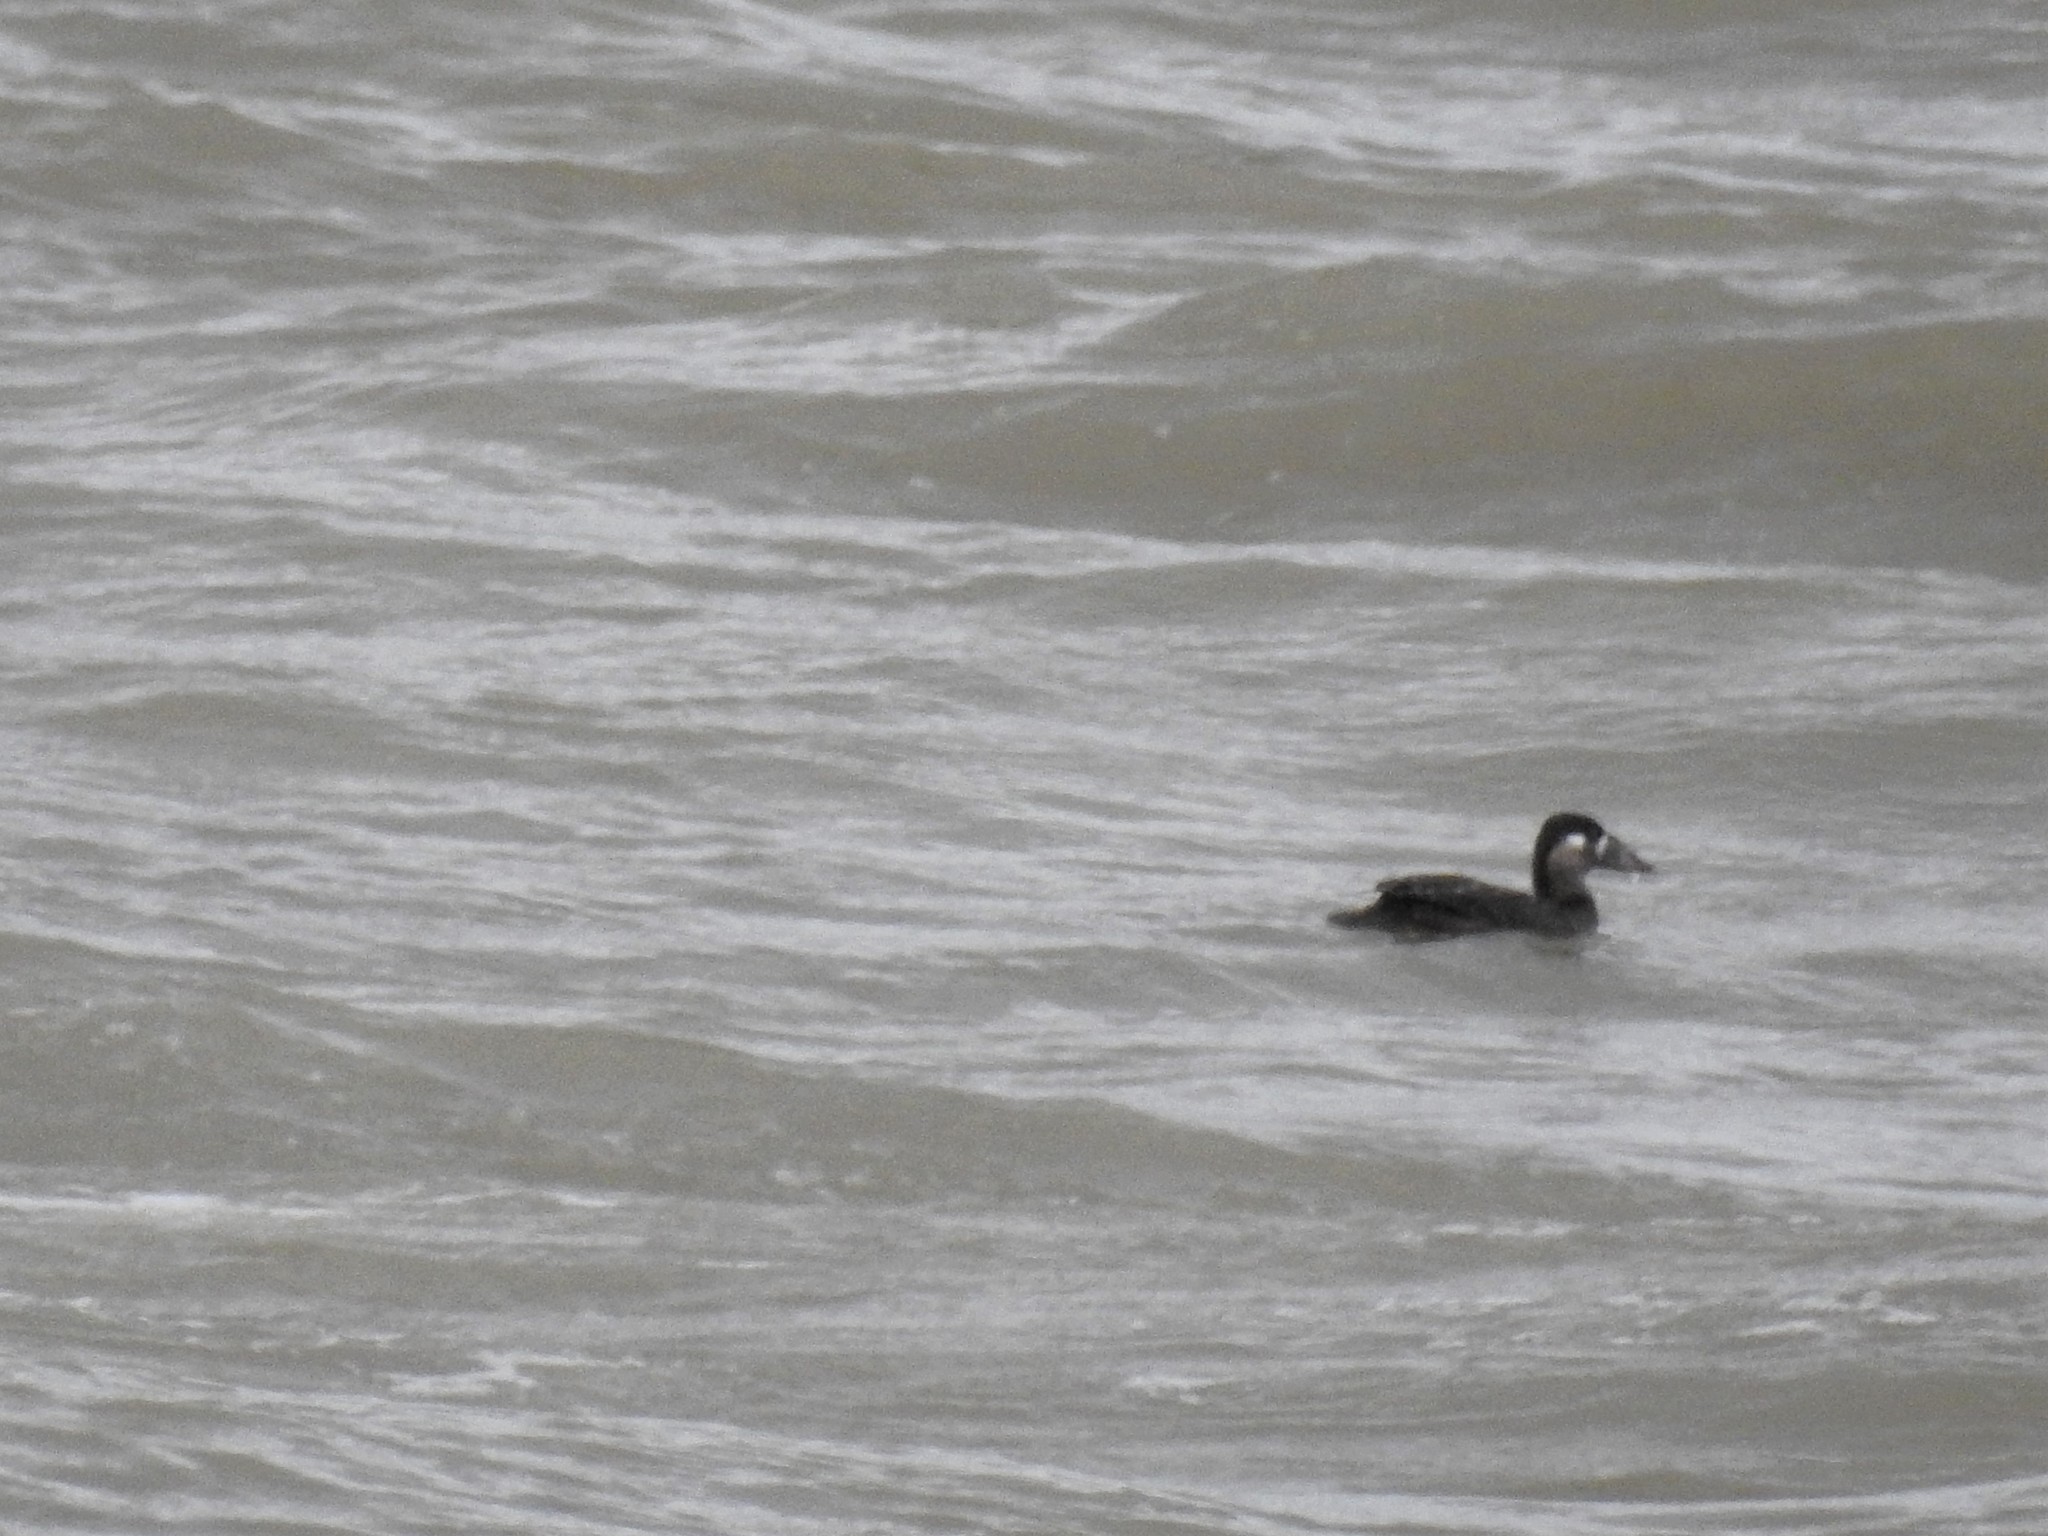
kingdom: Animalia
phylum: Chordata
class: Aves
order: Anseriformes
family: Anatidae
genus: Melanitta
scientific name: Melanitta perspicillata
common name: Surf scoter
